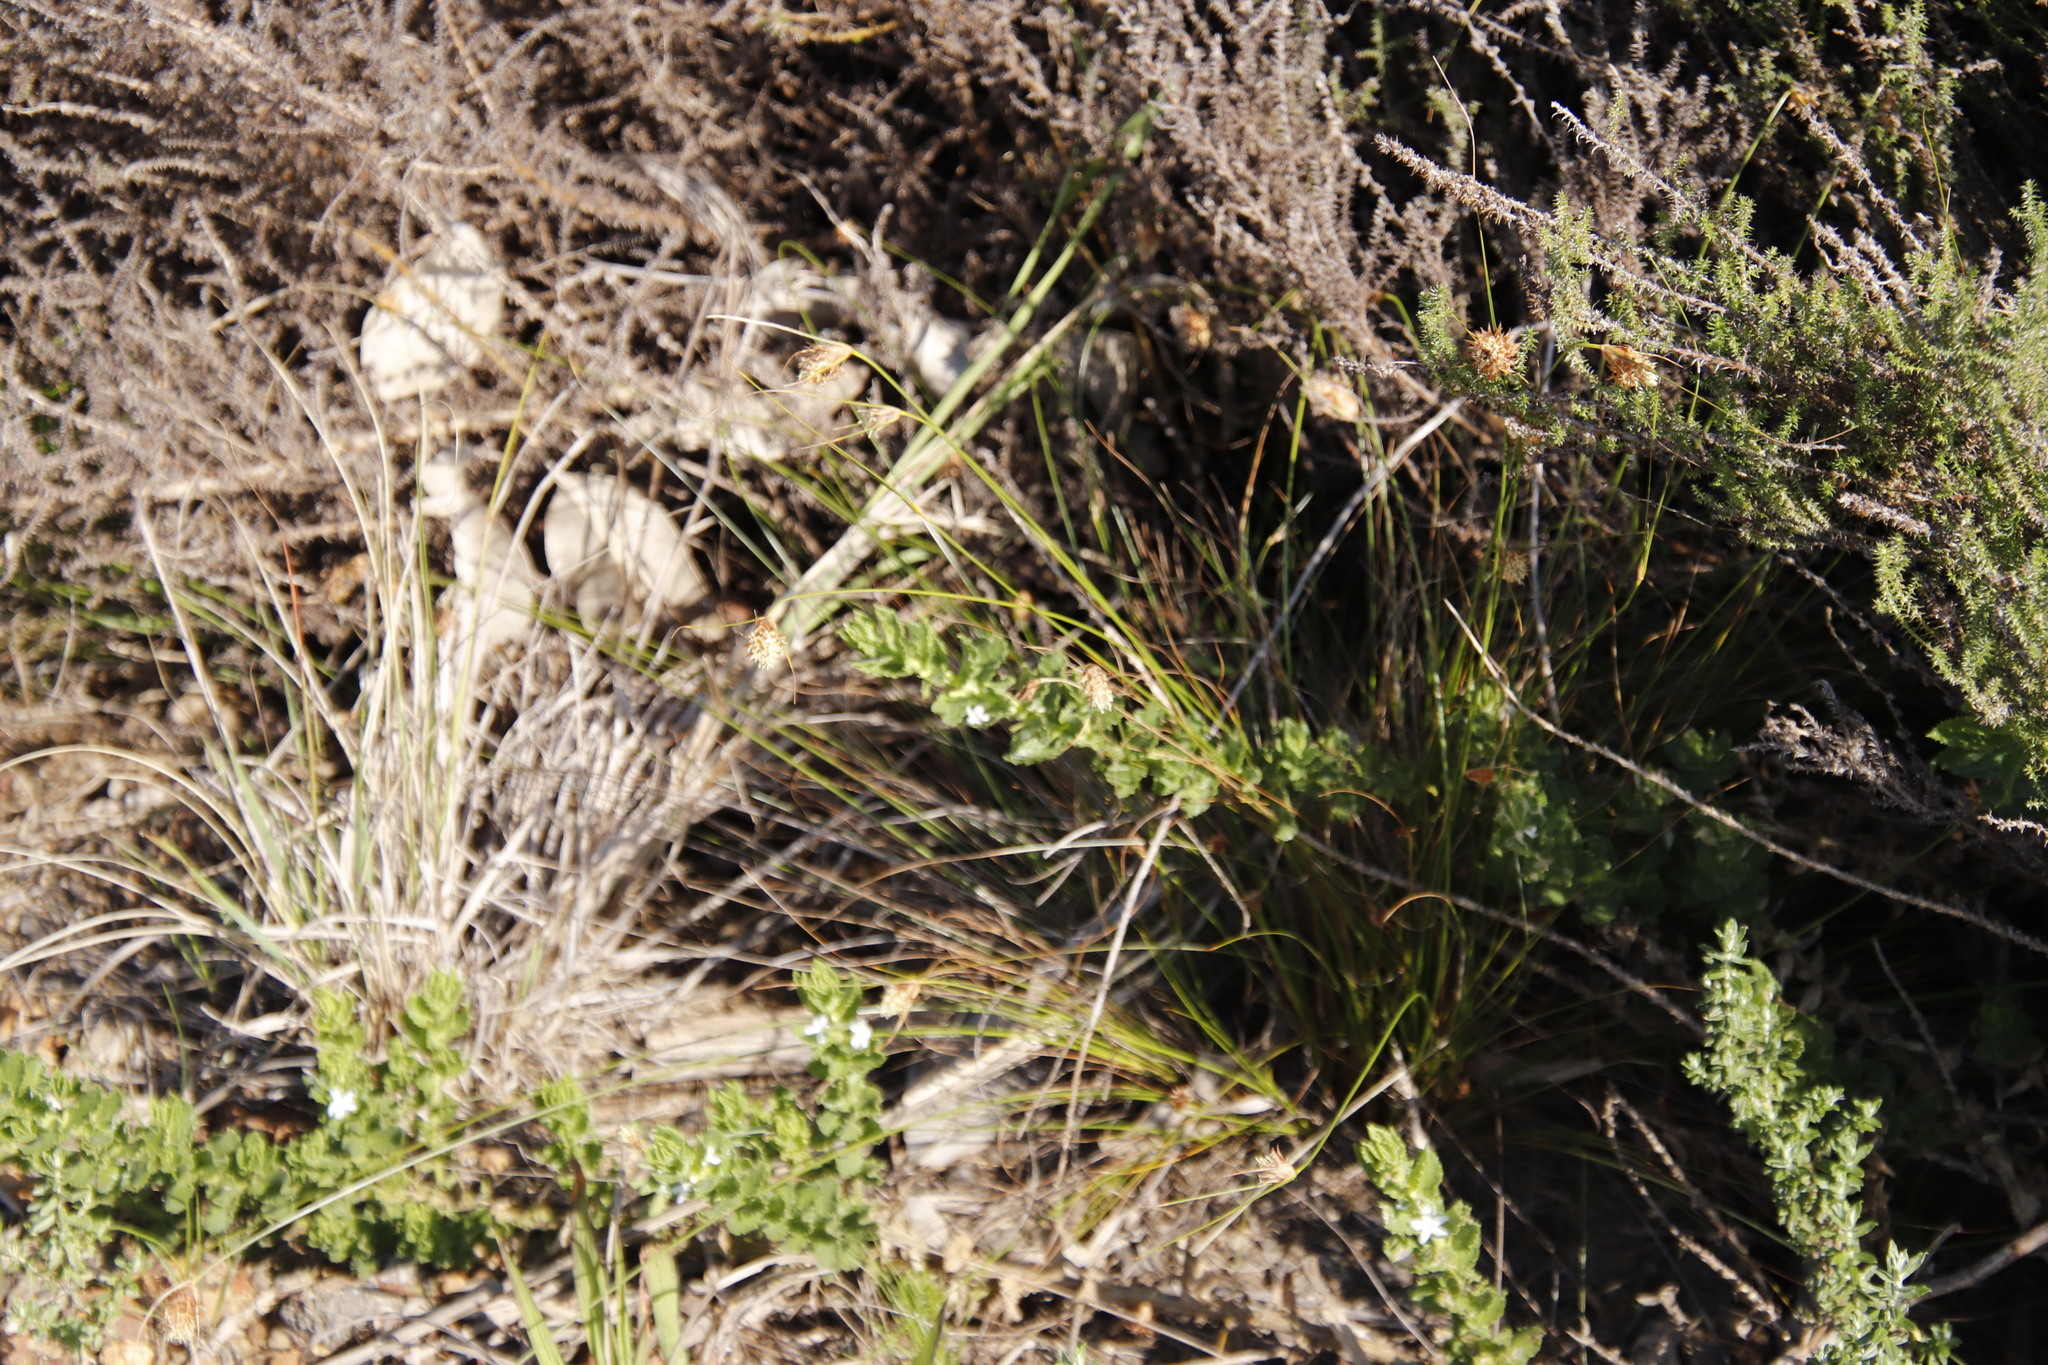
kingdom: Plantae
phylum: Tracheophyta
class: Magnoliopsida
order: Lamiales
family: Scrophulariaceae
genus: Oftia
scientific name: Oftia africana
